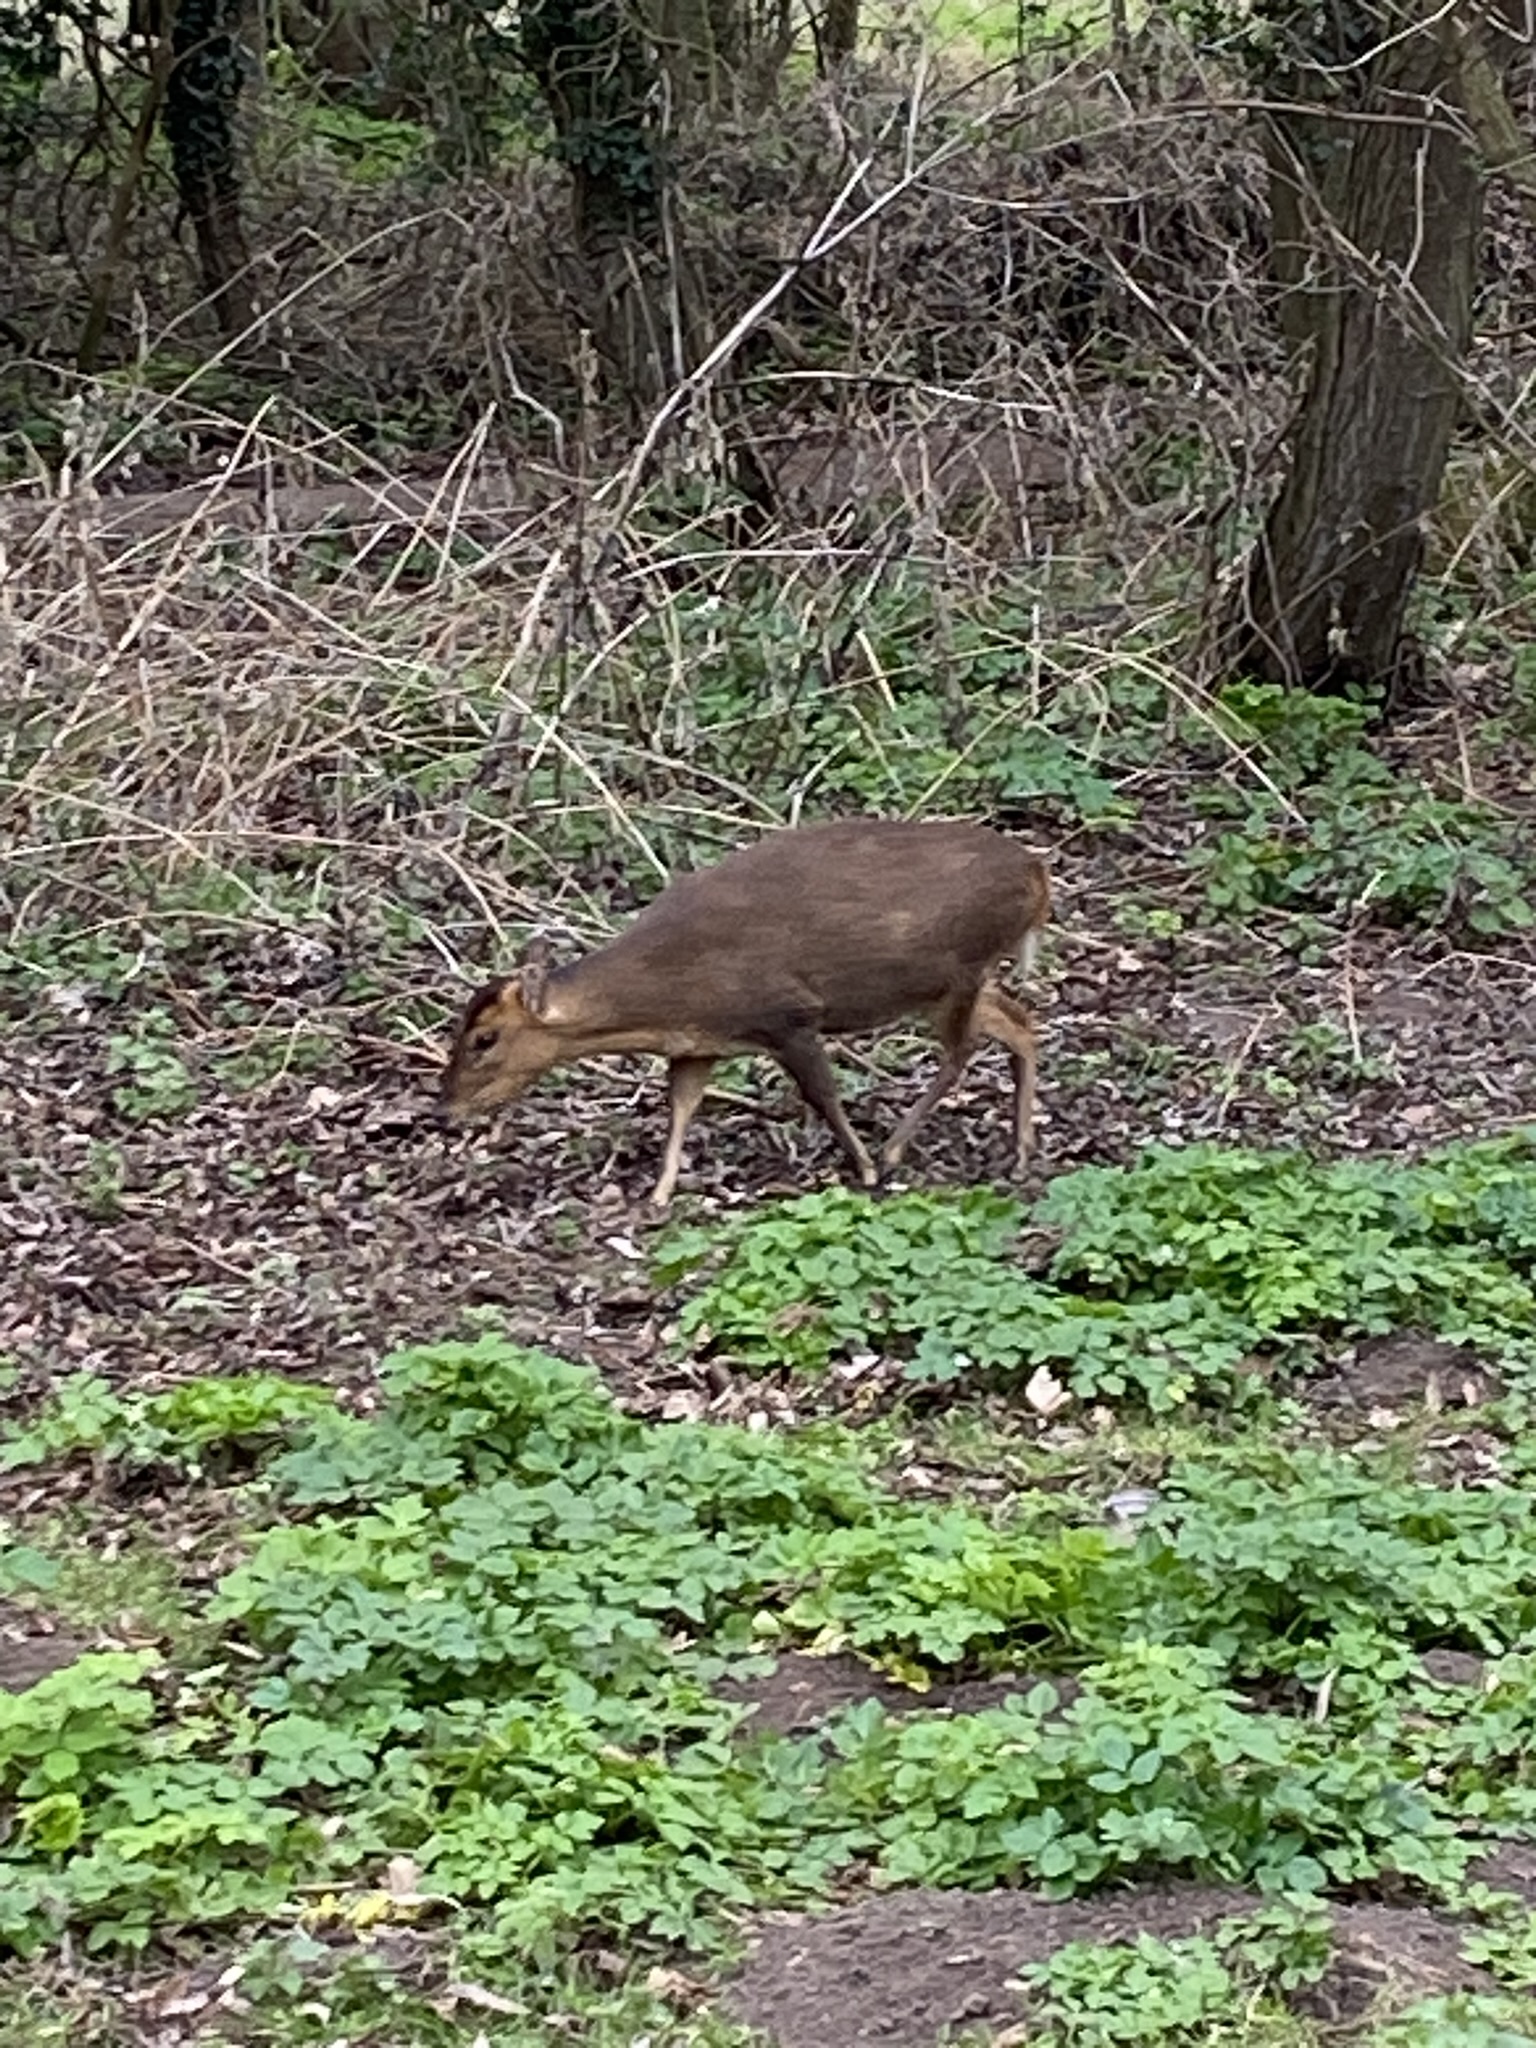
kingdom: Animalia
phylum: Chordata
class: Mammalia
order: Artiodactyla
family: Cervidae
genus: Muntiacus
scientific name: Muntiacus reevesi
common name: Reeves' muntjac
